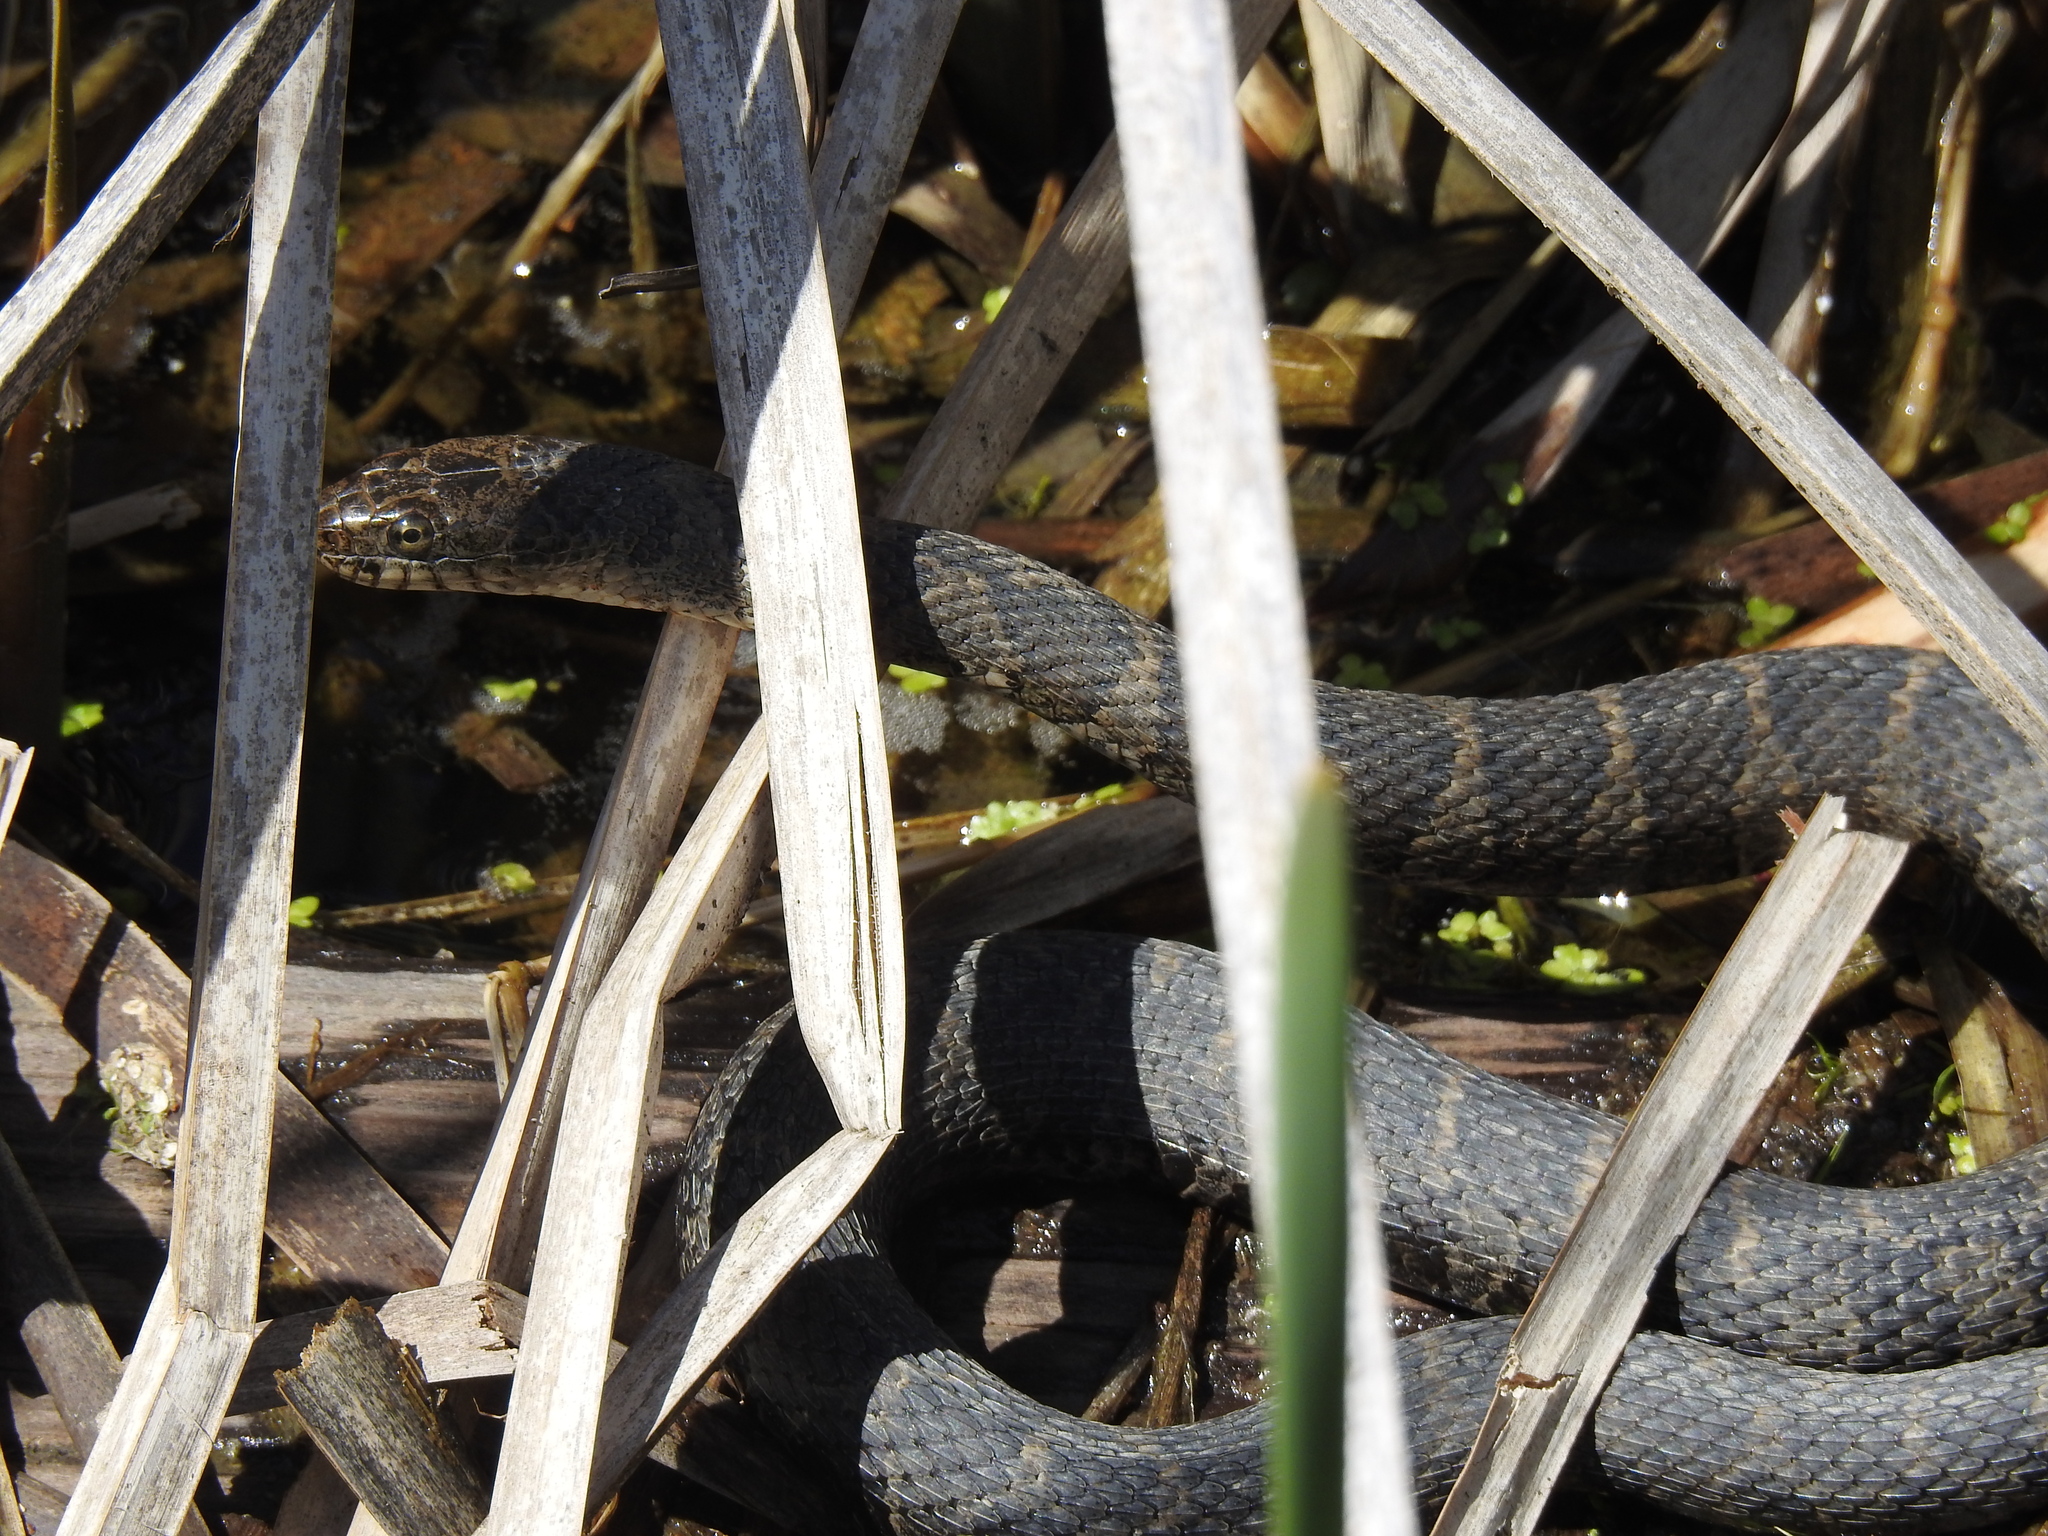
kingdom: Animalia
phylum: Chordata
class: Squamata
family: Colubridae
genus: Nerodia
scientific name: Nerodia sipedon
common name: Northern water snake
